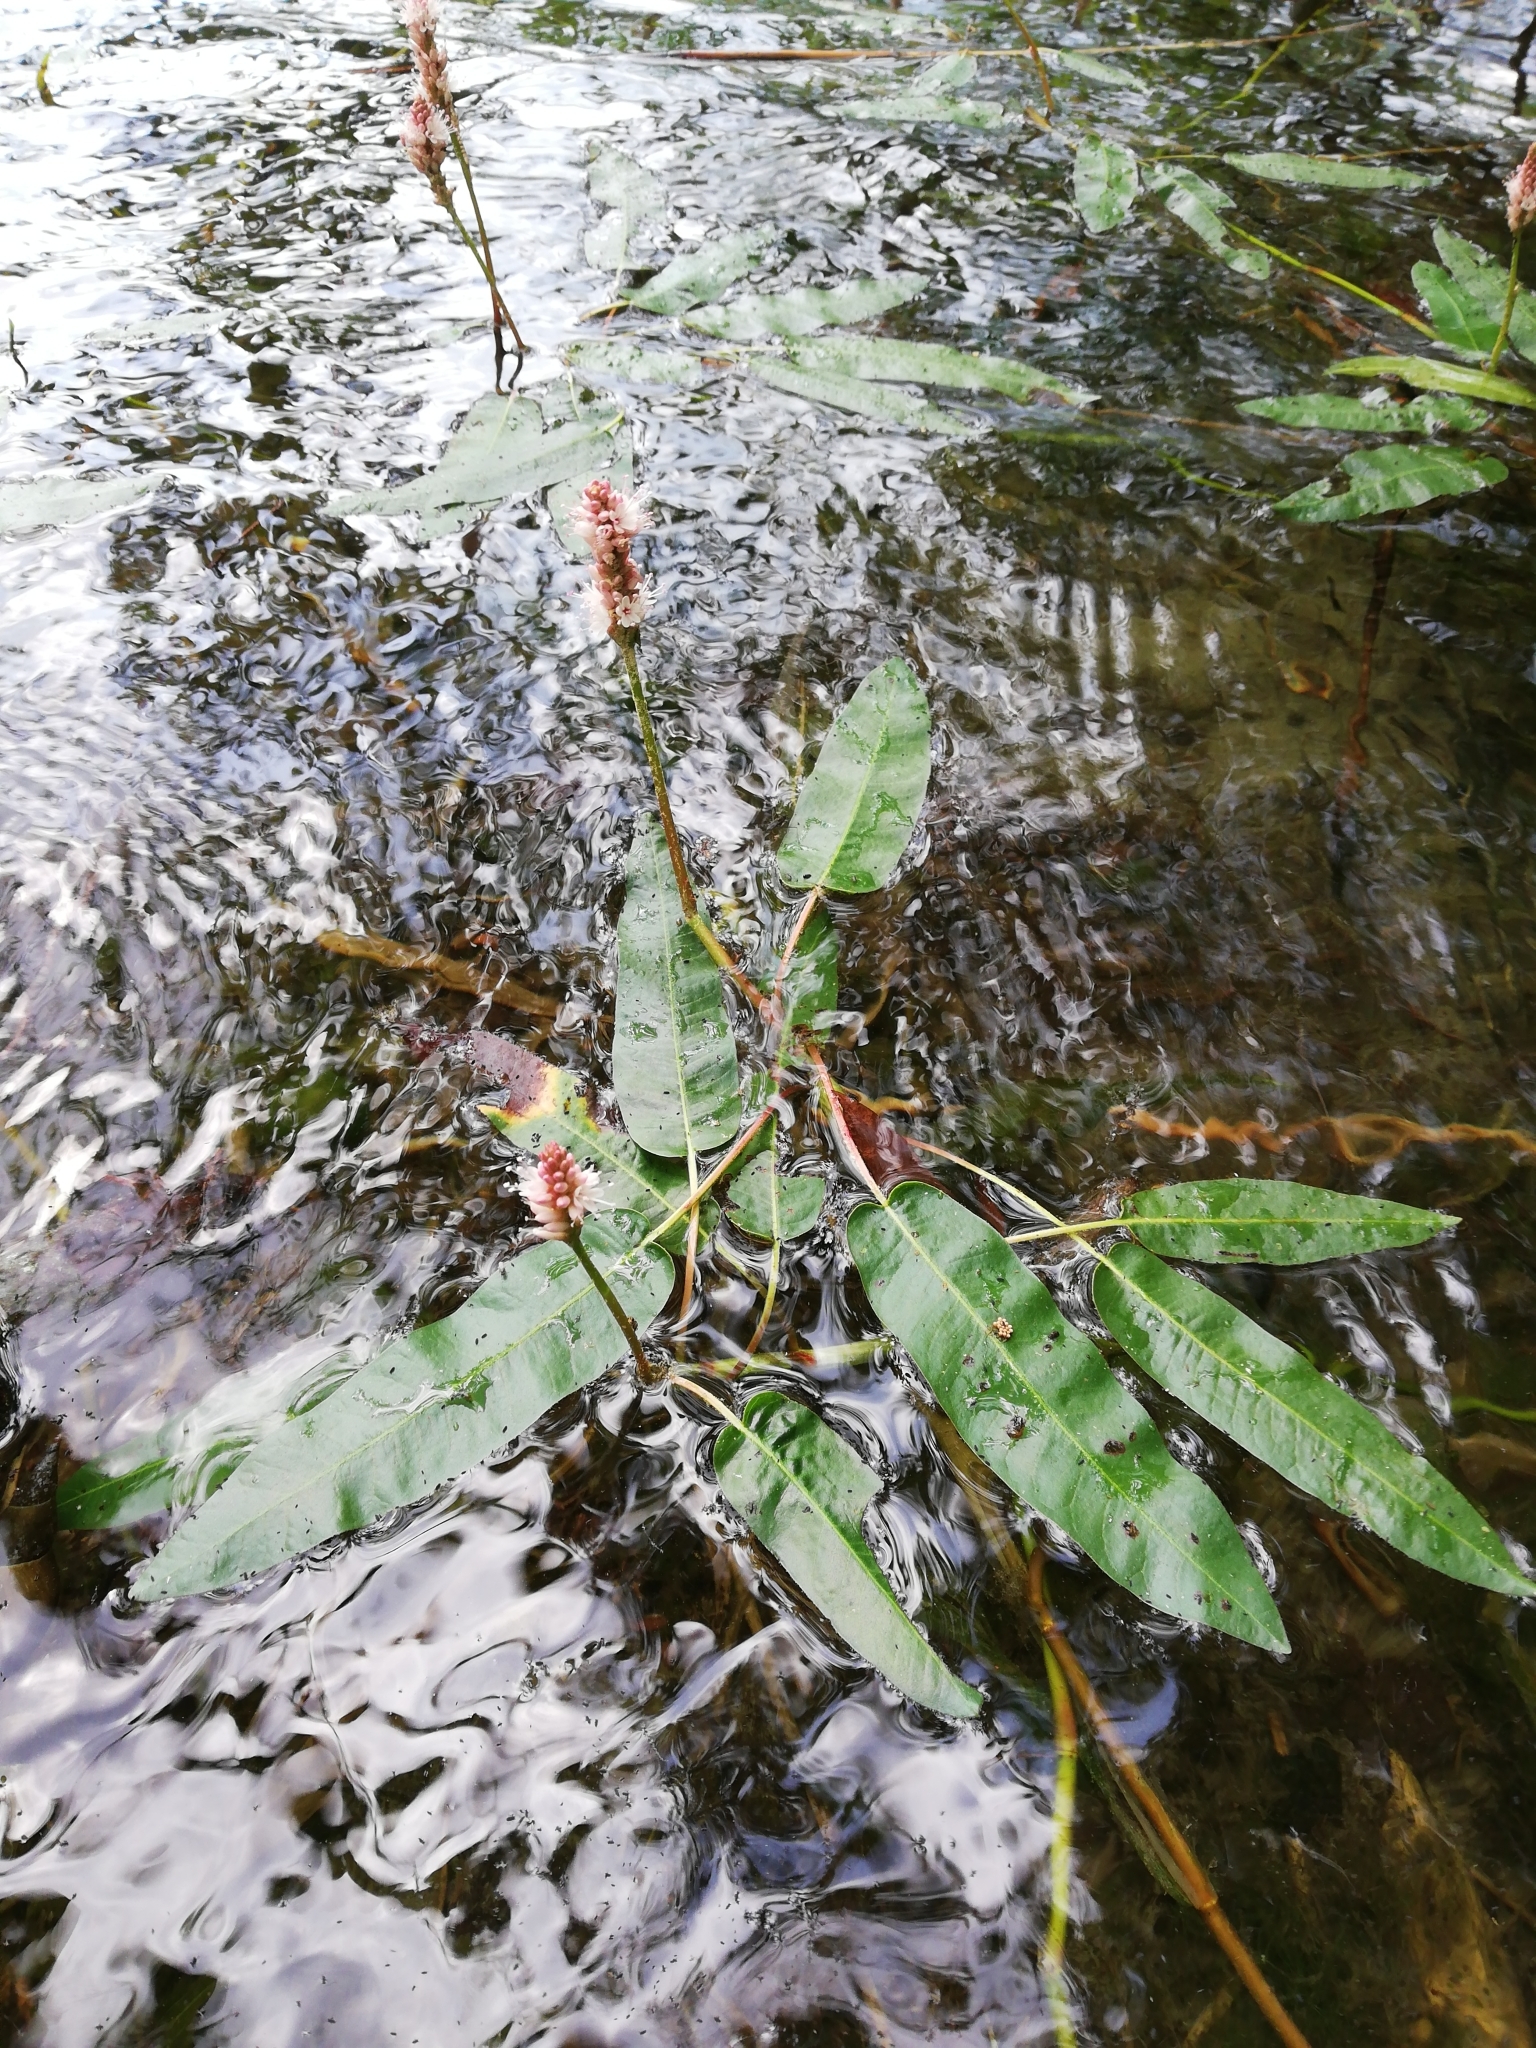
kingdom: Plantae
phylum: Tracheophyta
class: Magnoliopsida
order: Caryophyllales
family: Polygonaceae
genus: Persicaria
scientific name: Persicaria amphibia
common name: Amphibious bistort
